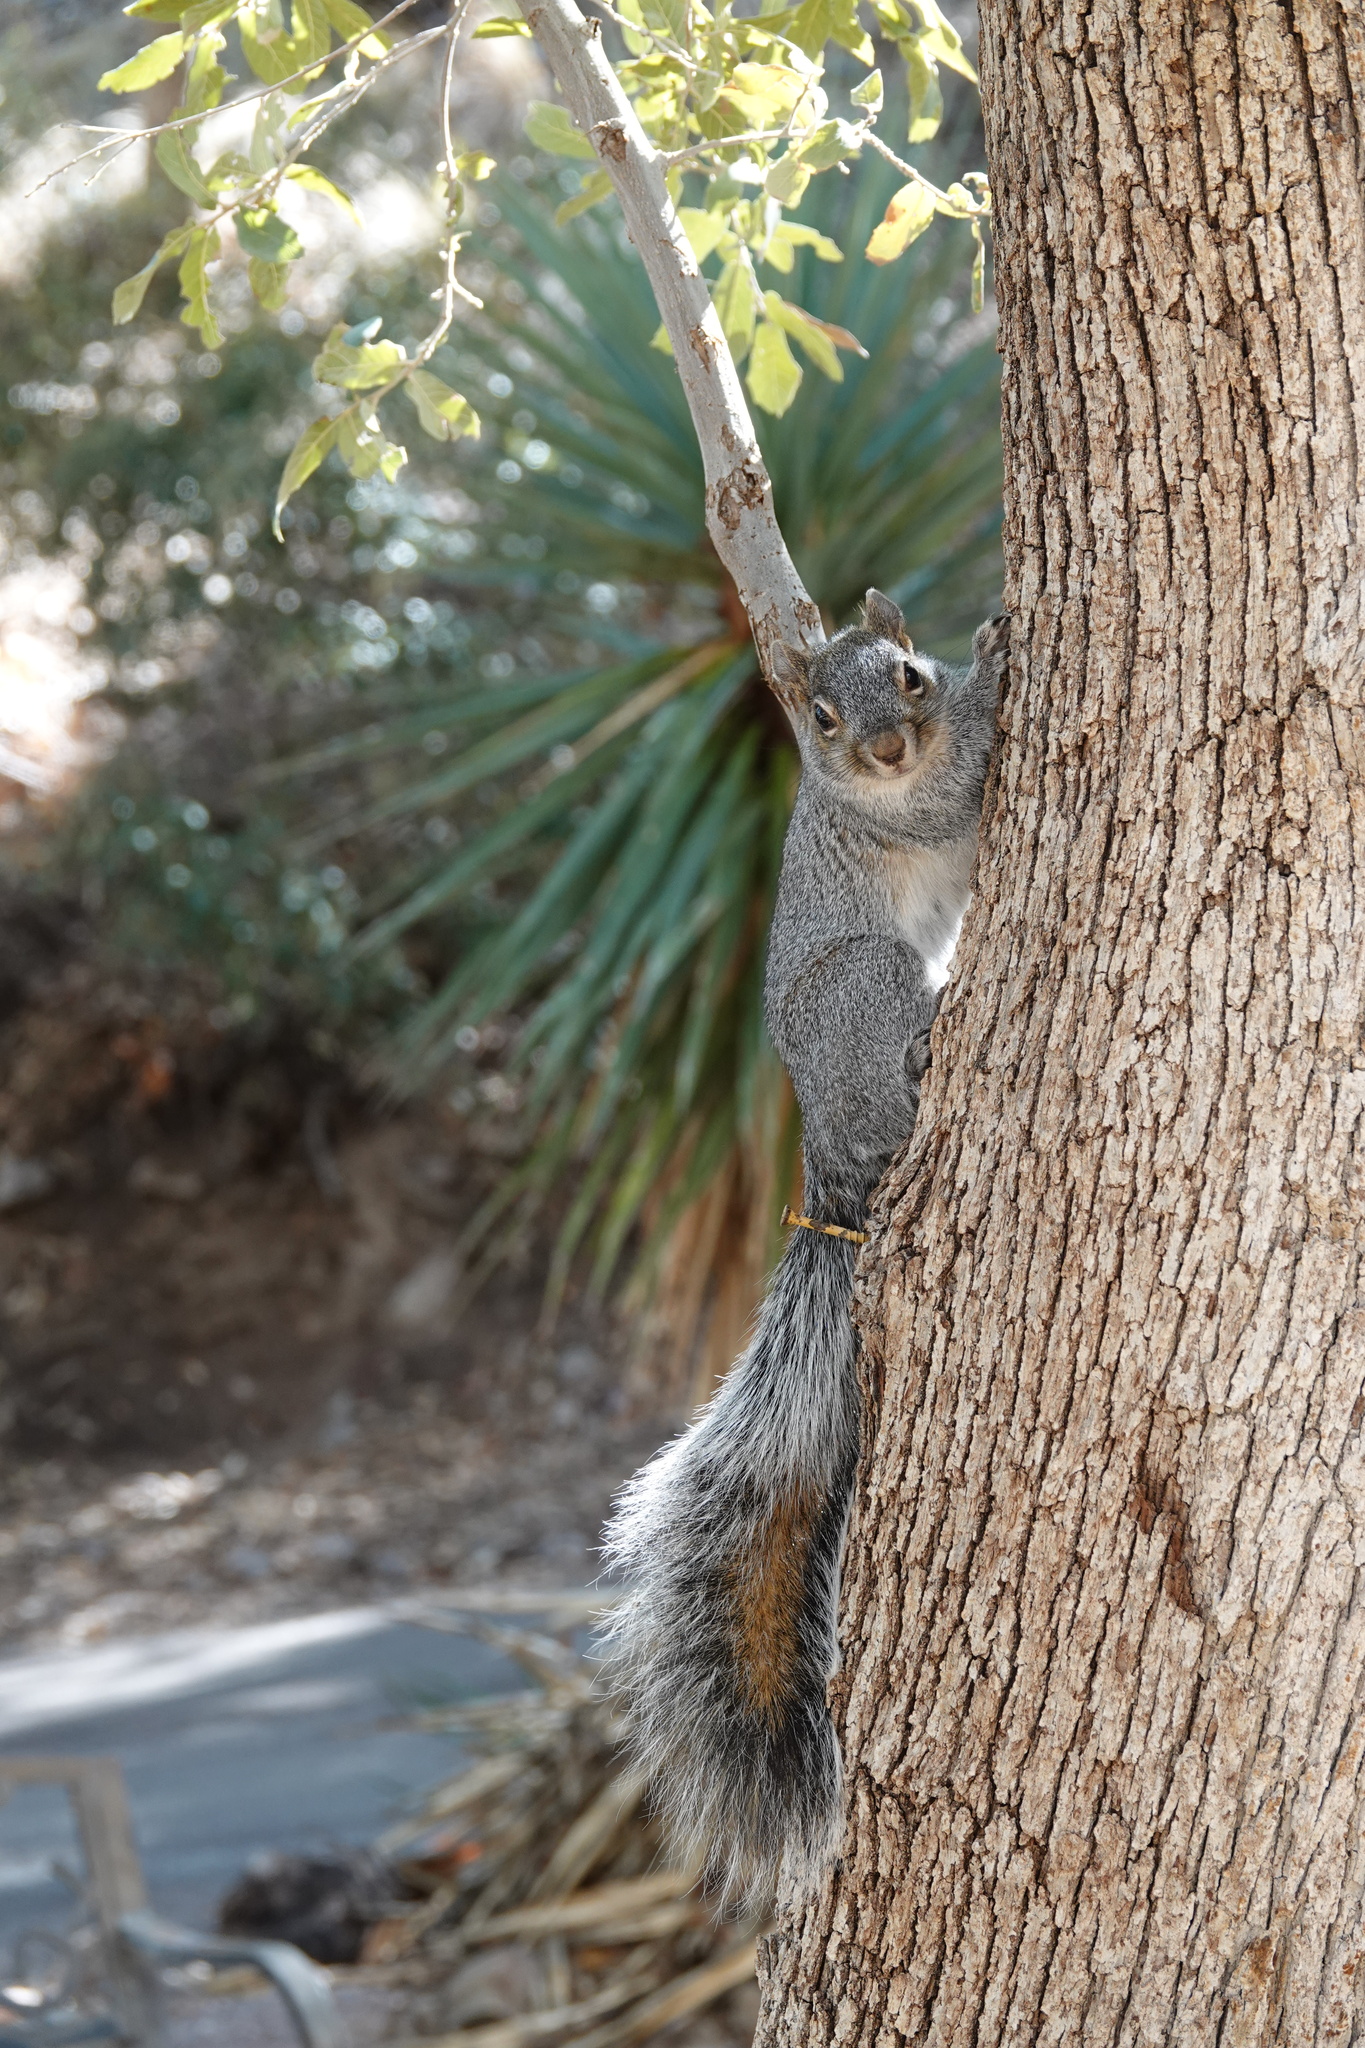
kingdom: Animalia
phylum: Chordata
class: Mammalia
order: Rodentia
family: Sciuridae
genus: Sciurus
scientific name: Sciurus arizonensis
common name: Arizona gray squirrel
